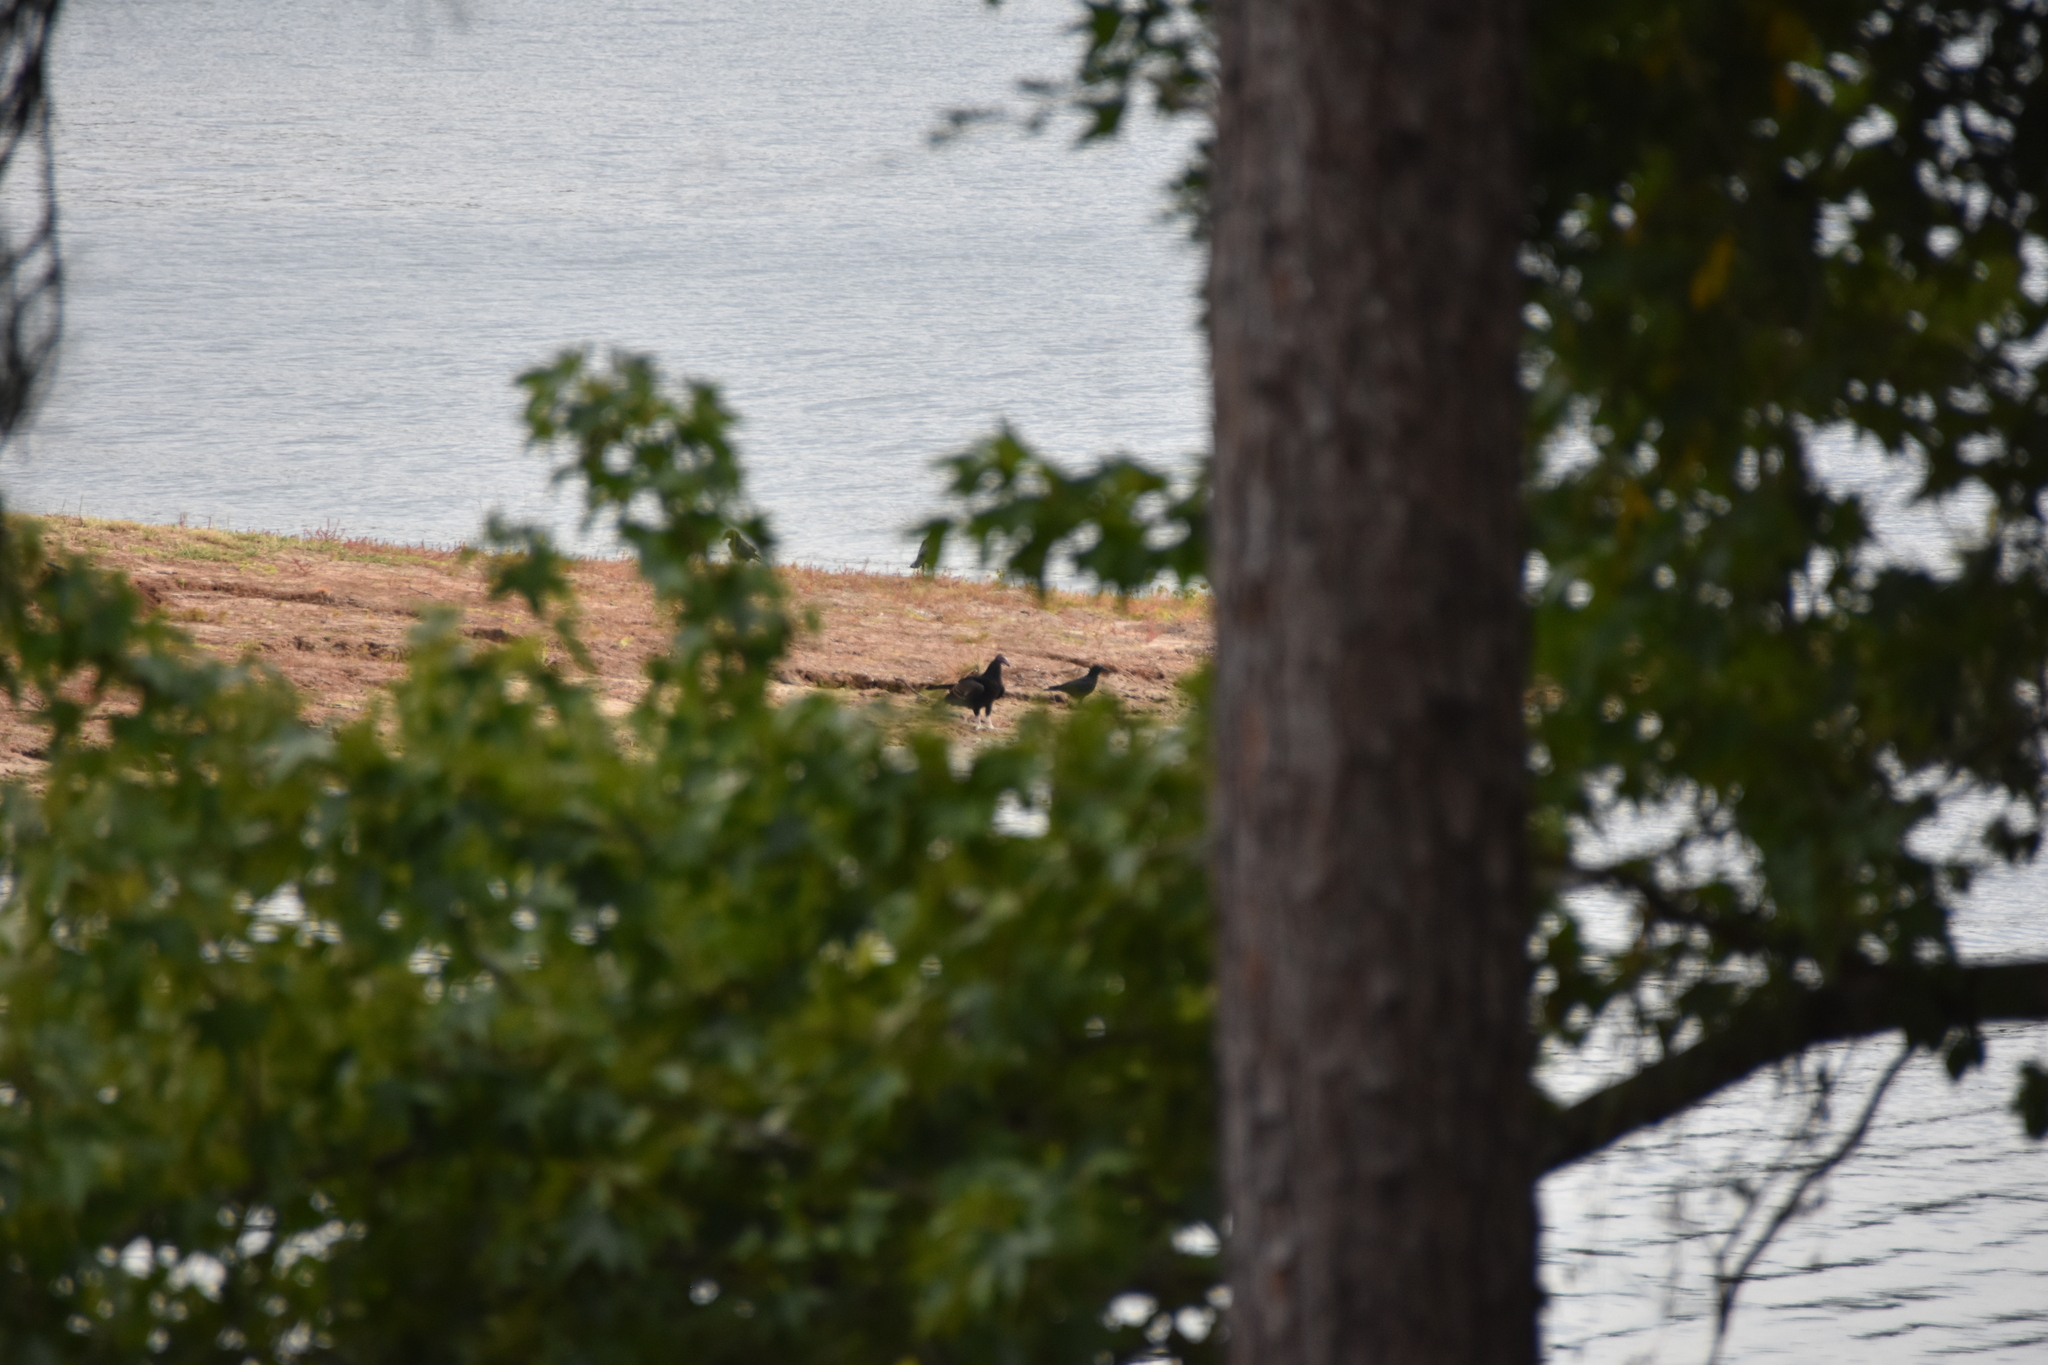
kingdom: Animalia
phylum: Chordata
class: Aves
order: Accipitriformes
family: Cathartidae
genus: Cathartes
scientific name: Cathartes aura
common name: Turkey vulture
